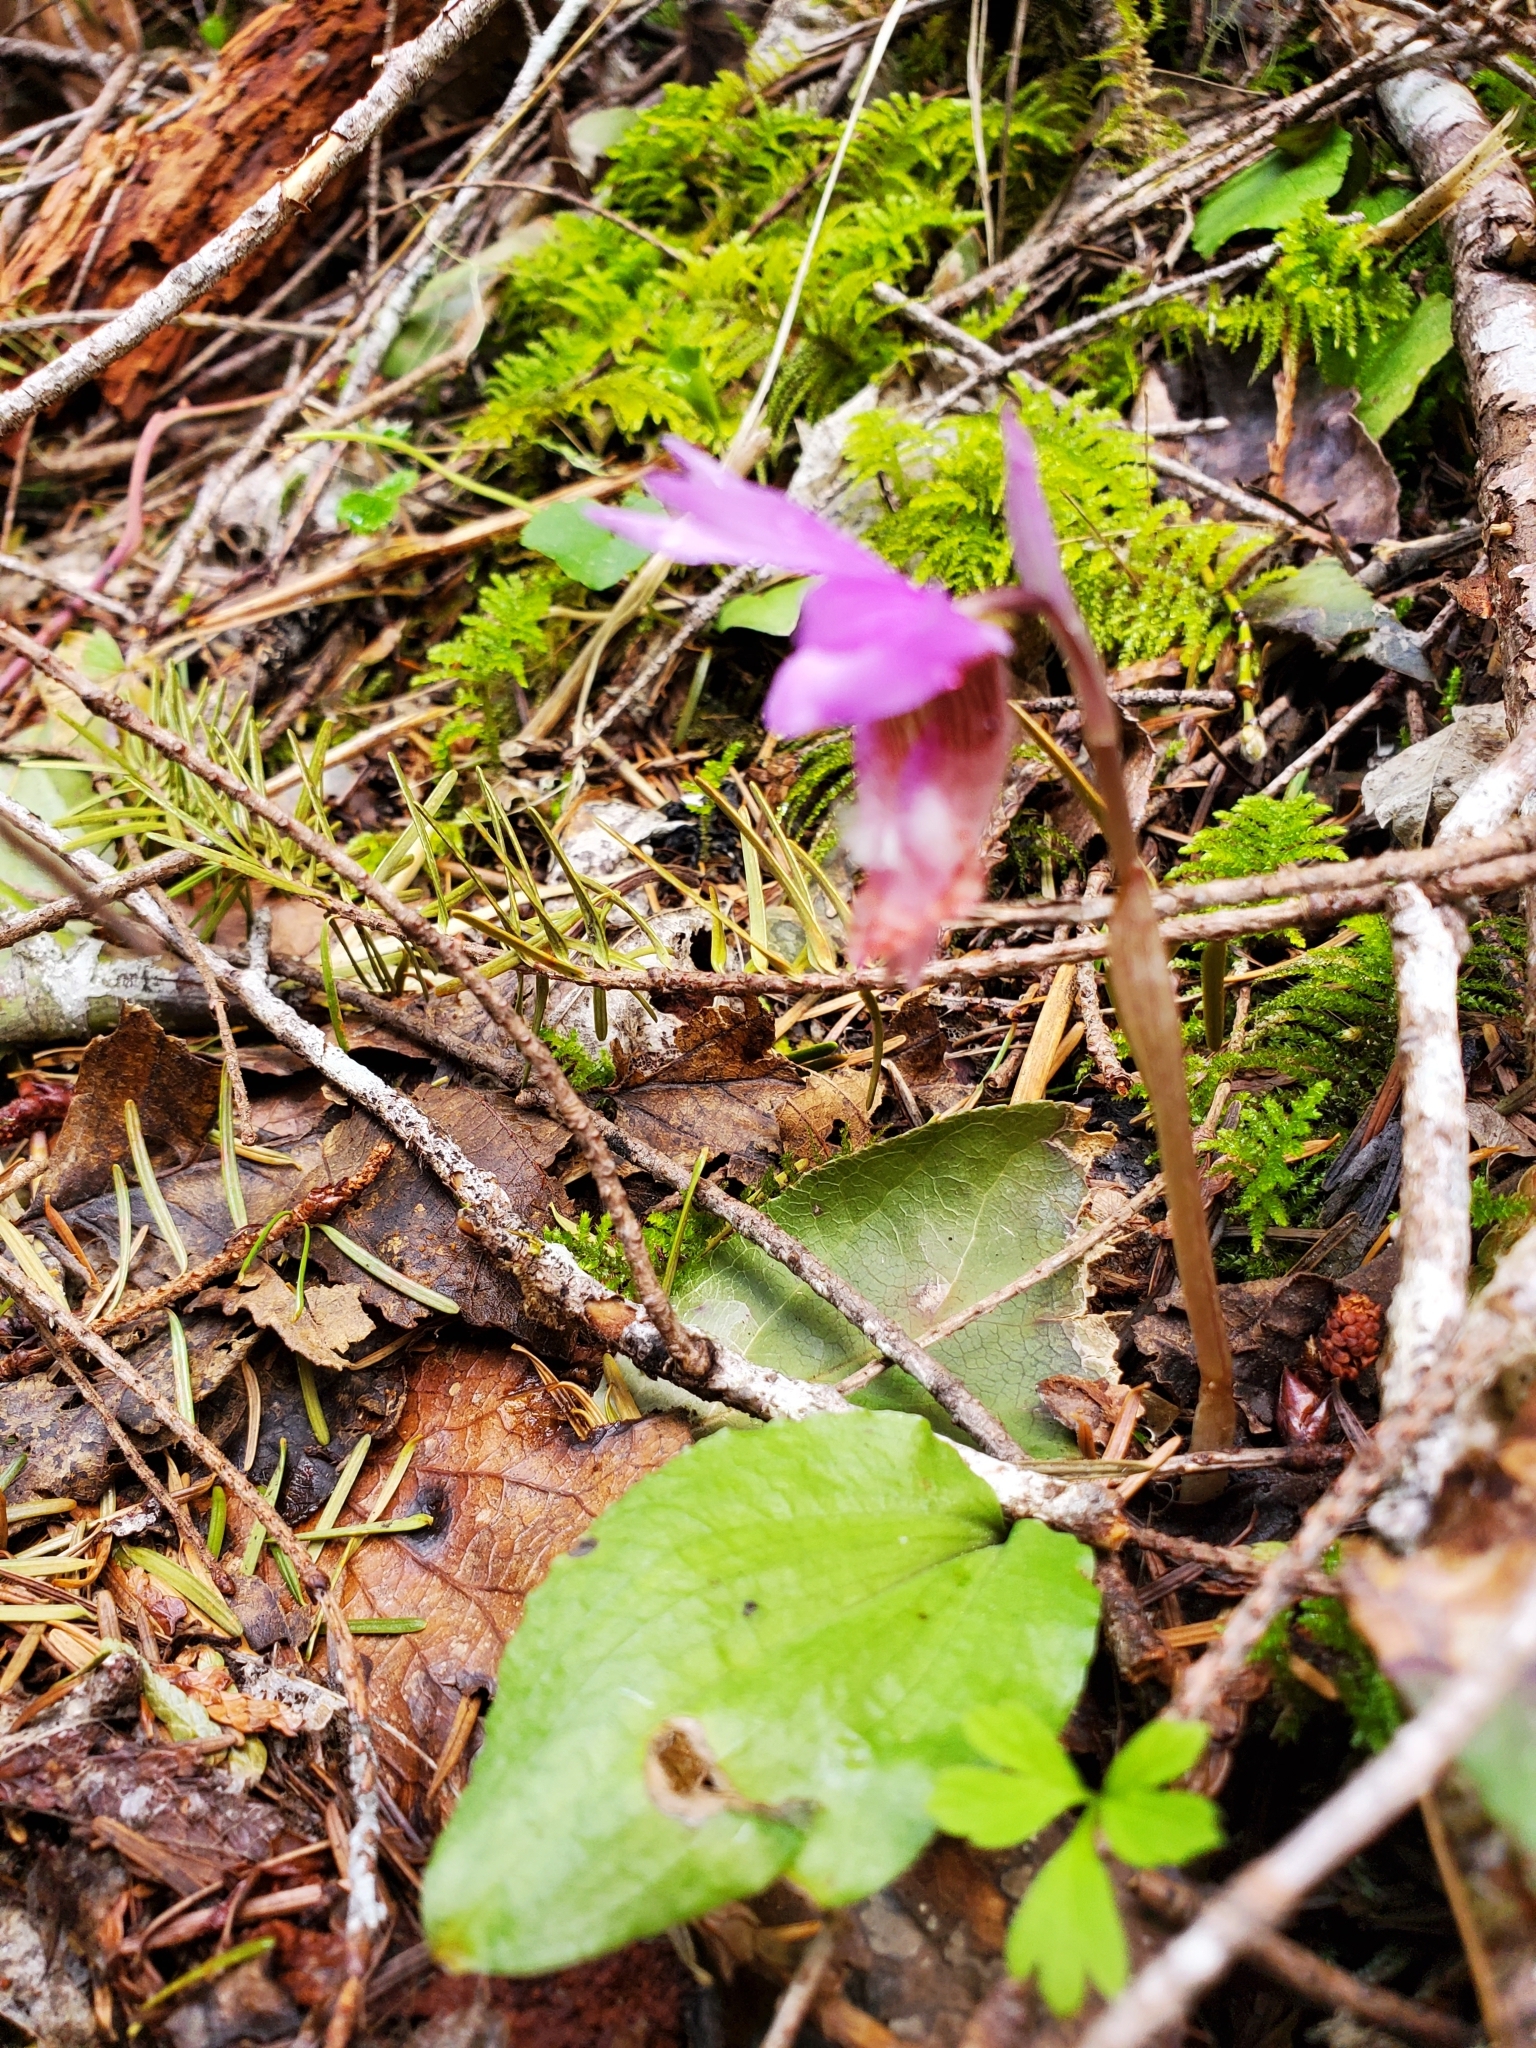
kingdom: Plantae
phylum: Tracheophyta
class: Liliopsida
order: Asparagales
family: Orchidaceae
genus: Calypso
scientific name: Calypso bulbosa
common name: Calypso
